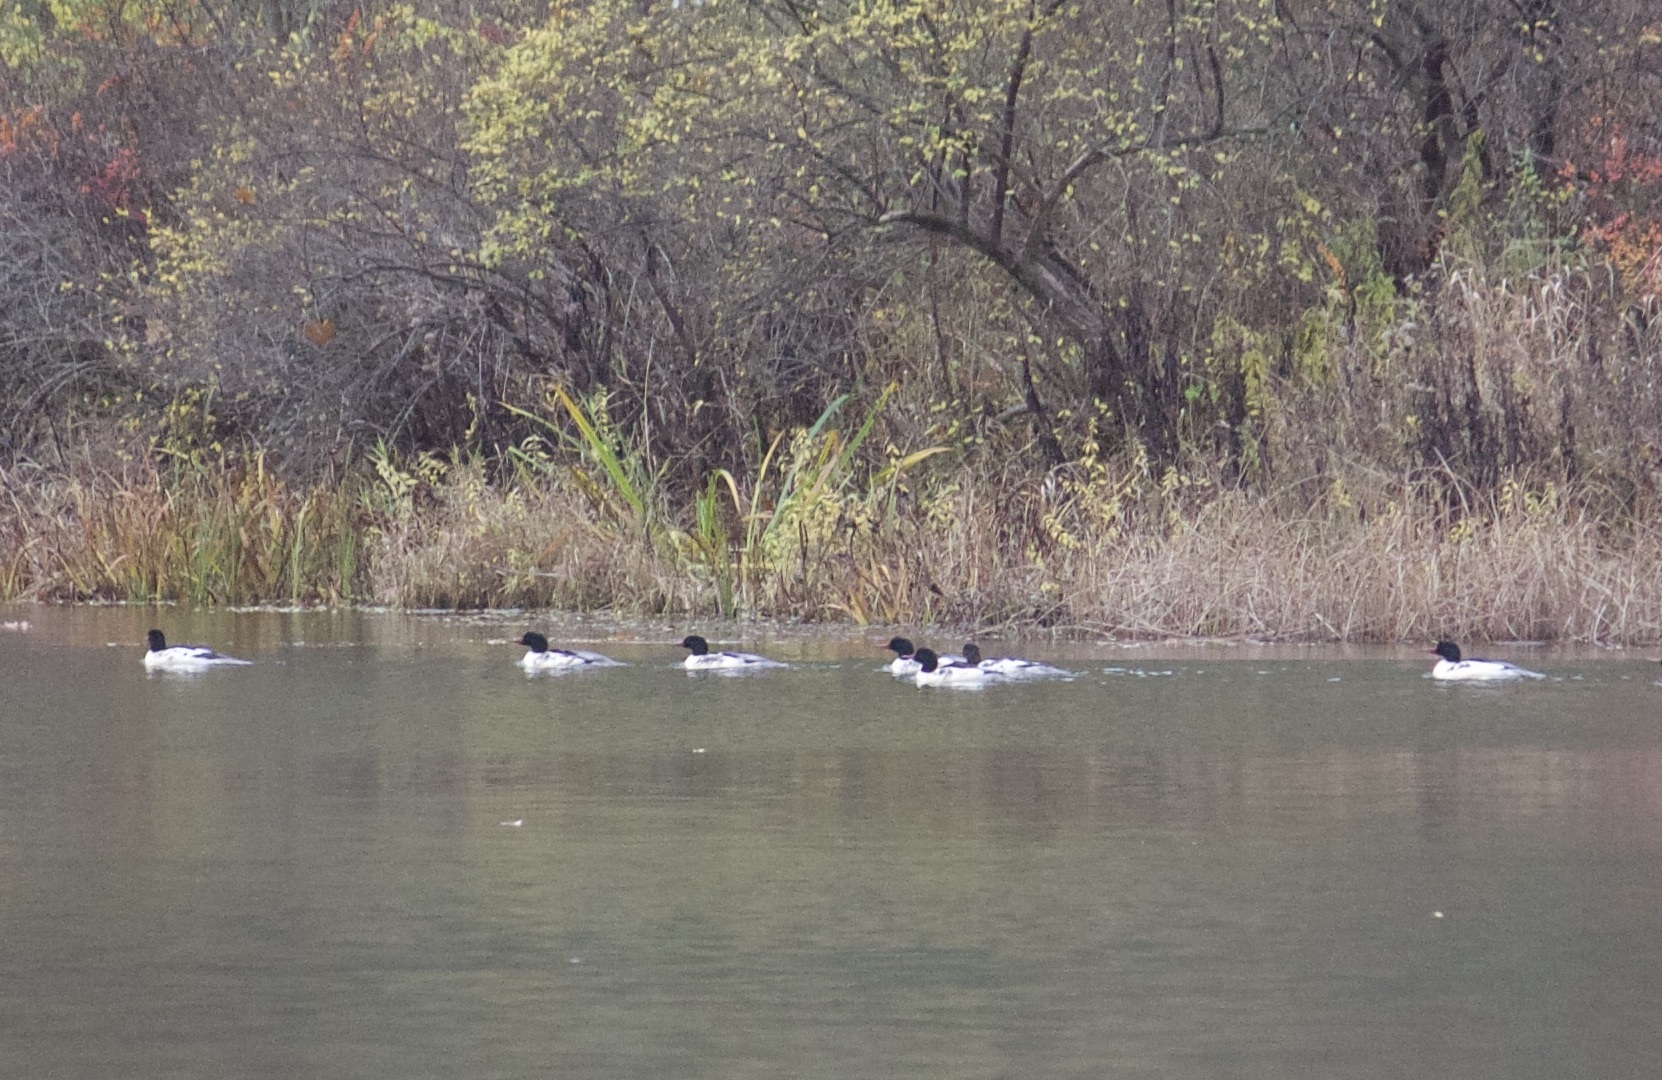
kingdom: Animalia
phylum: Chordata
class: Aves
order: Anseriformes
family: Anatidae
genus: Mergus
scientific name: Mergus merganser
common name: Common merganser
